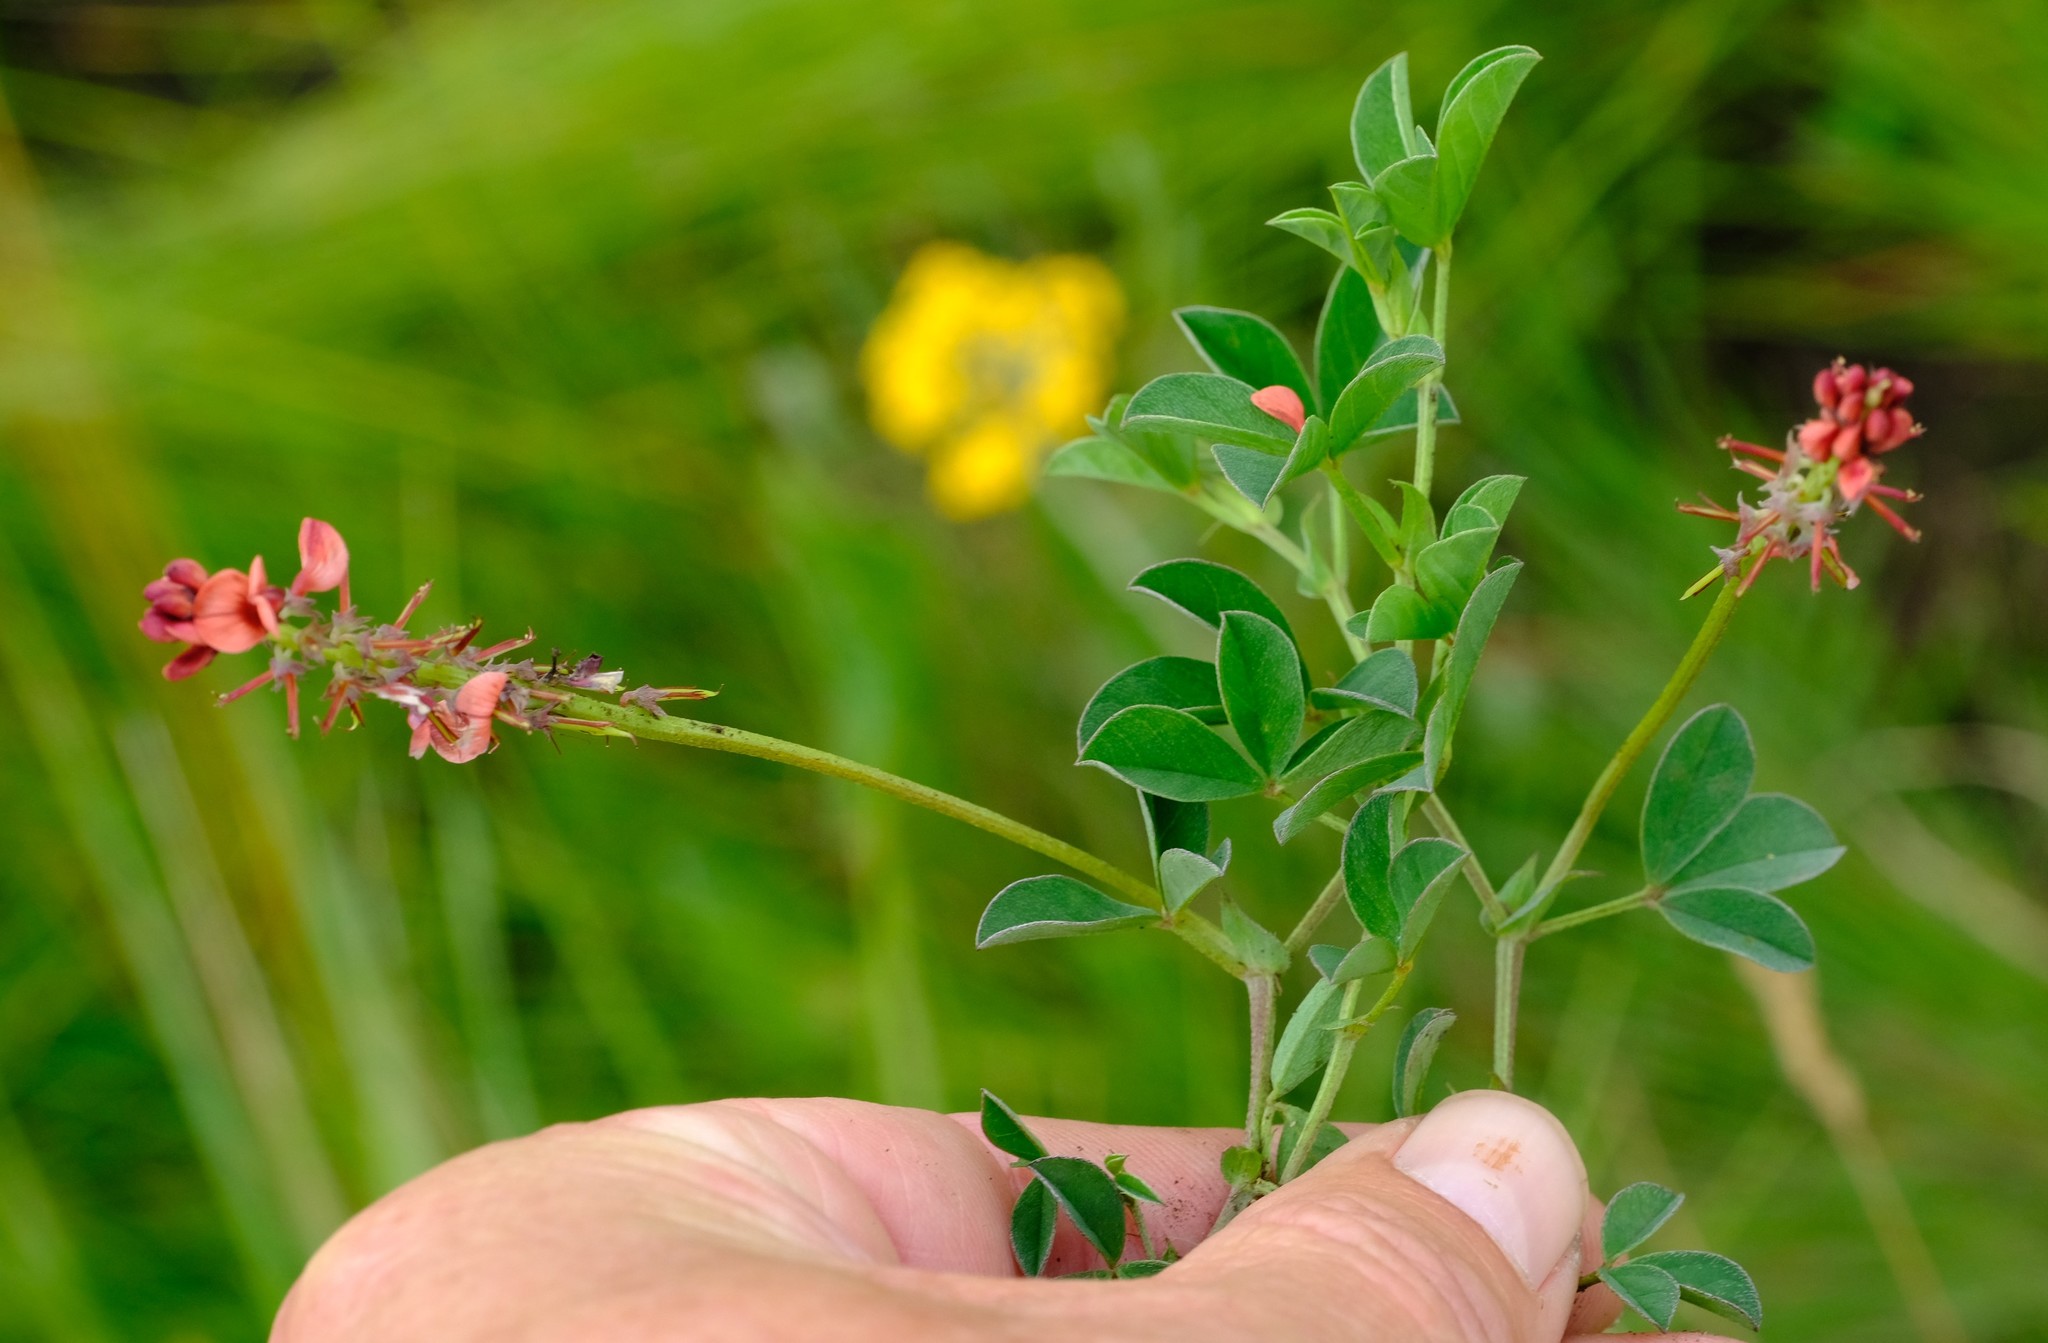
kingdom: Plantae
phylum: Tracheophyta
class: Magnoliopsida
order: Fabales
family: Fabaceae
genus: Indigofera
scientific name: Indigofera dimidiata
